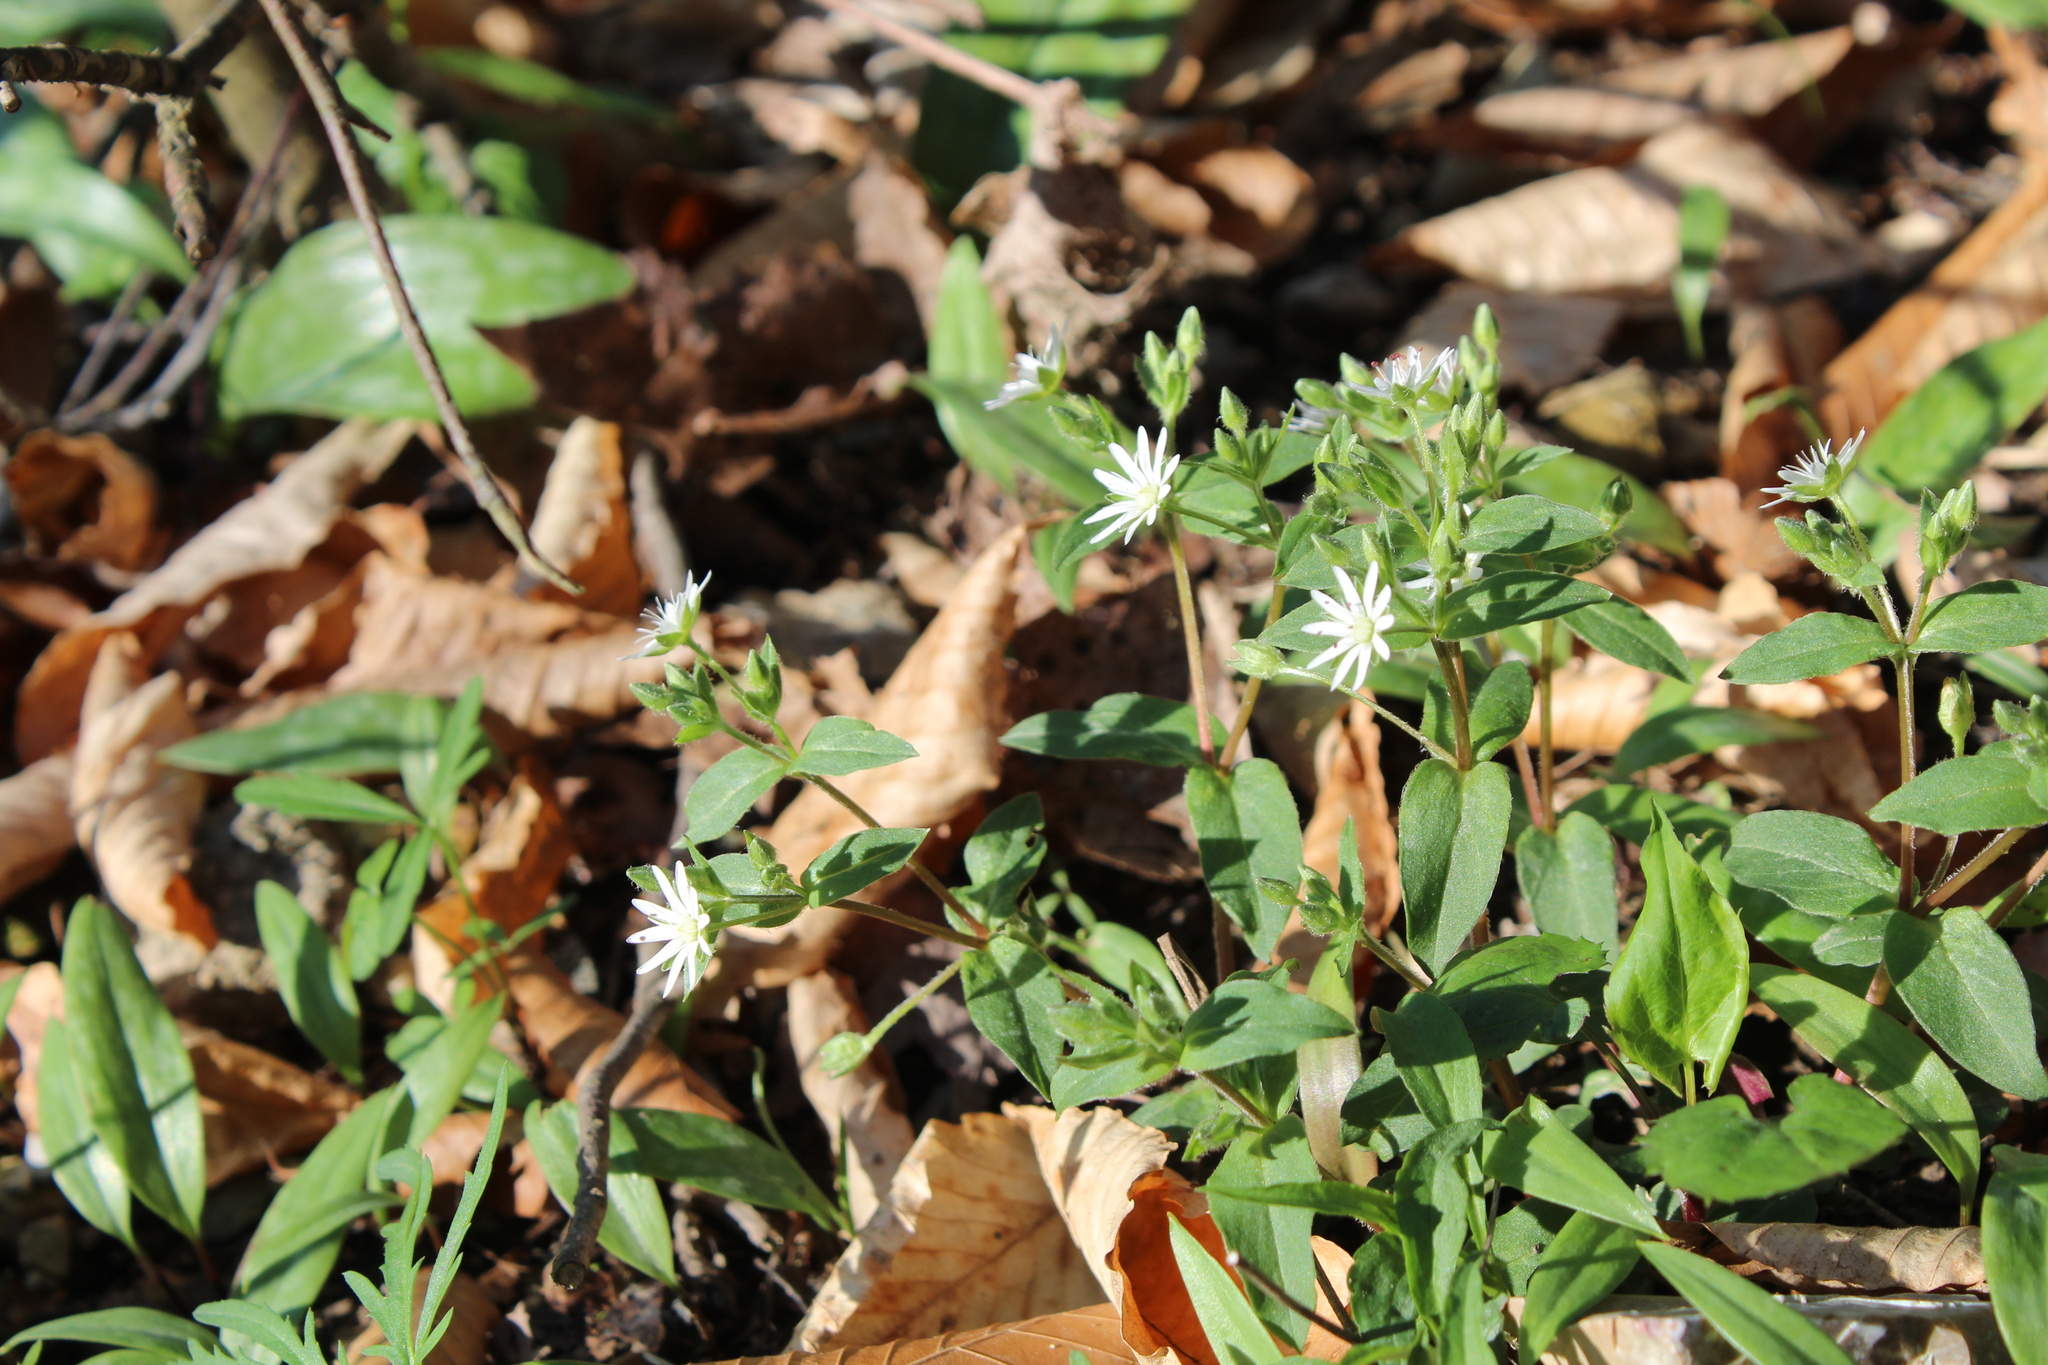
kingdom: Plantae
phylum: Tracheophyta
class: Magnoliopsida
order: Caryophyllales
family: Caryophyllaceae
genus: Stellaria
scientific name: Stellaria pubera
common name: Star chickweed
